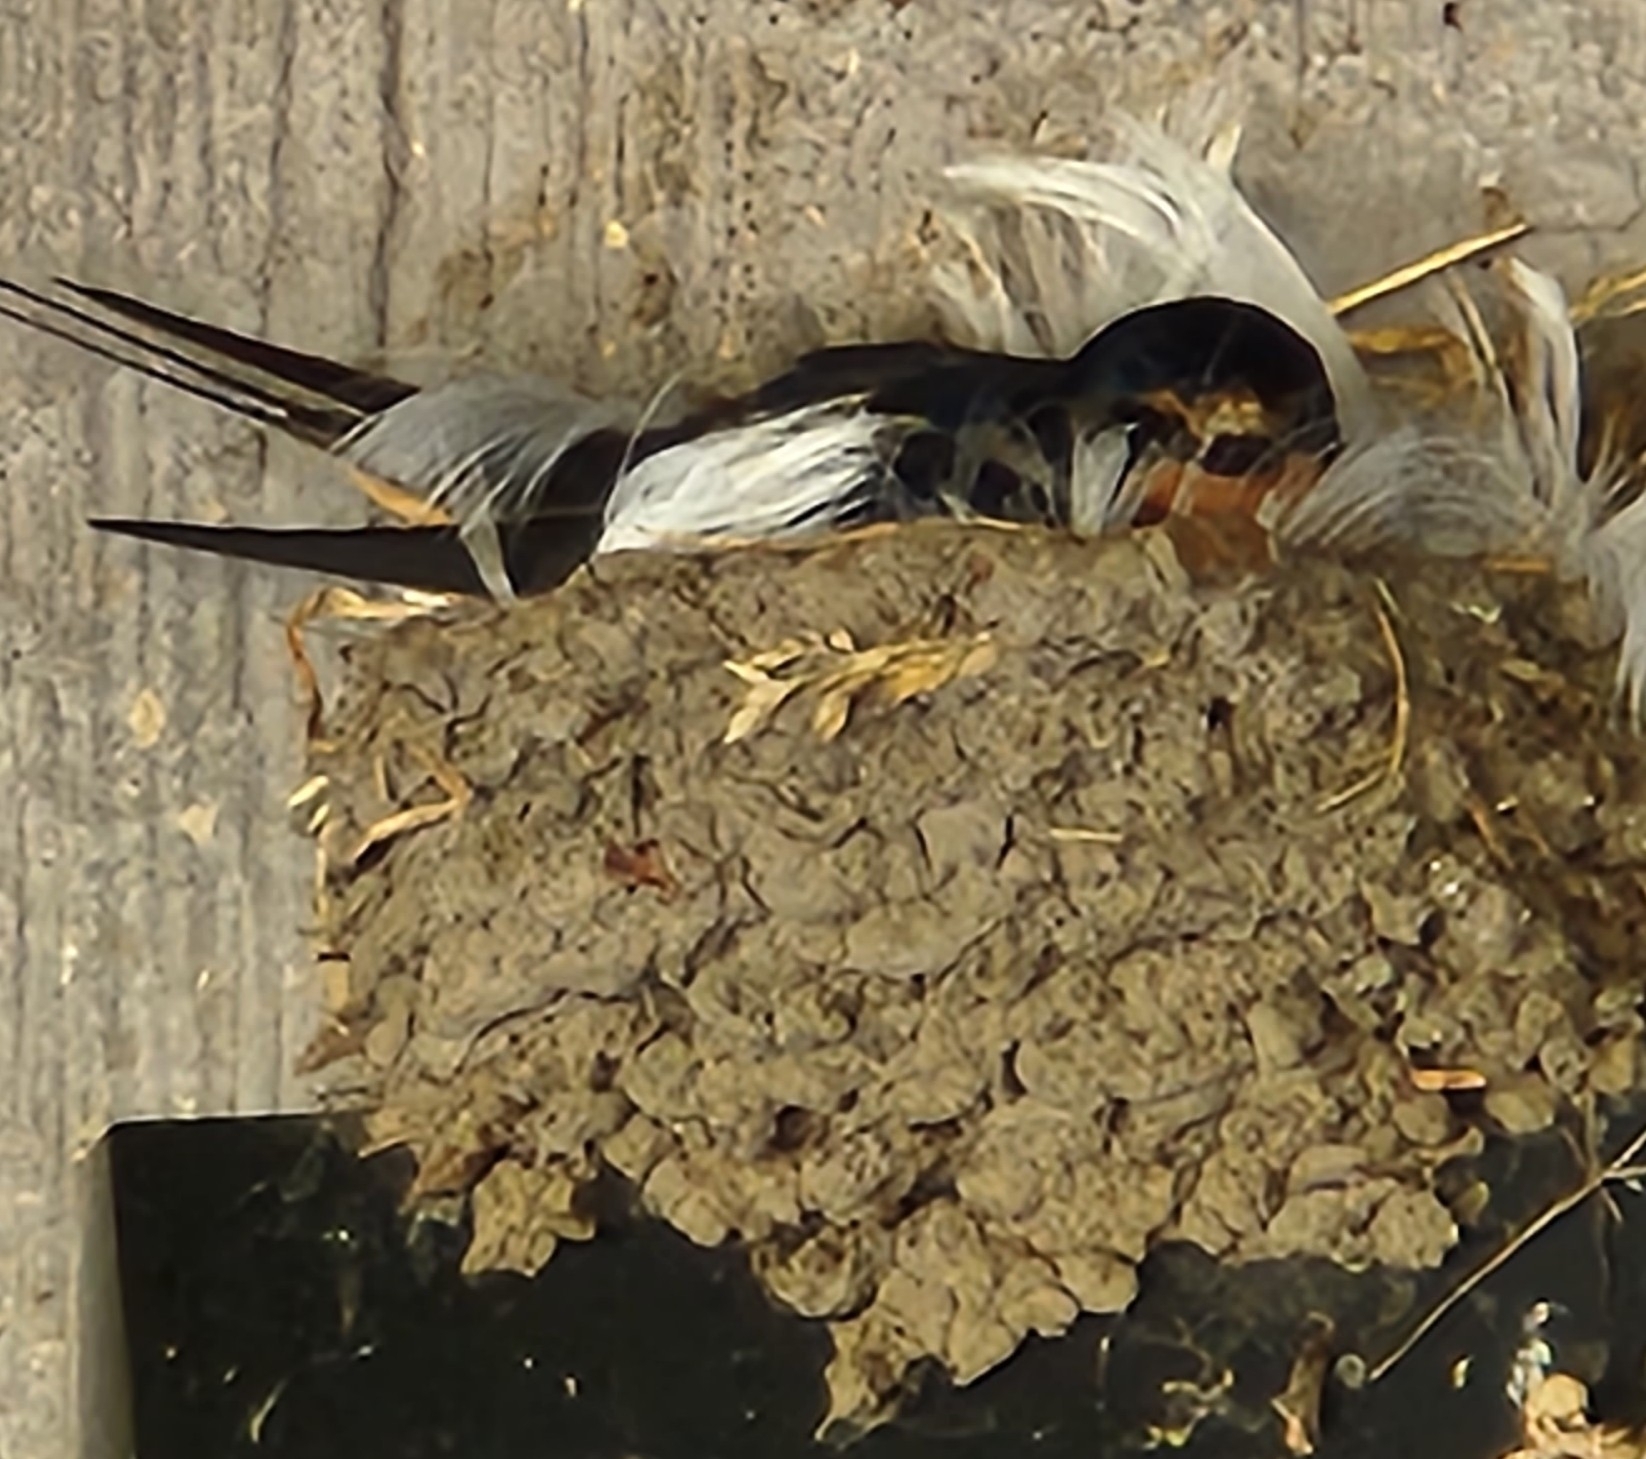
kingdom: Animalia
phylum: Chordata
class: Aves
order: Passeriformes
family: Hirundinidae
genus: Hirundo
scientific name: Hirundo rustica
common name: Barn swallow
